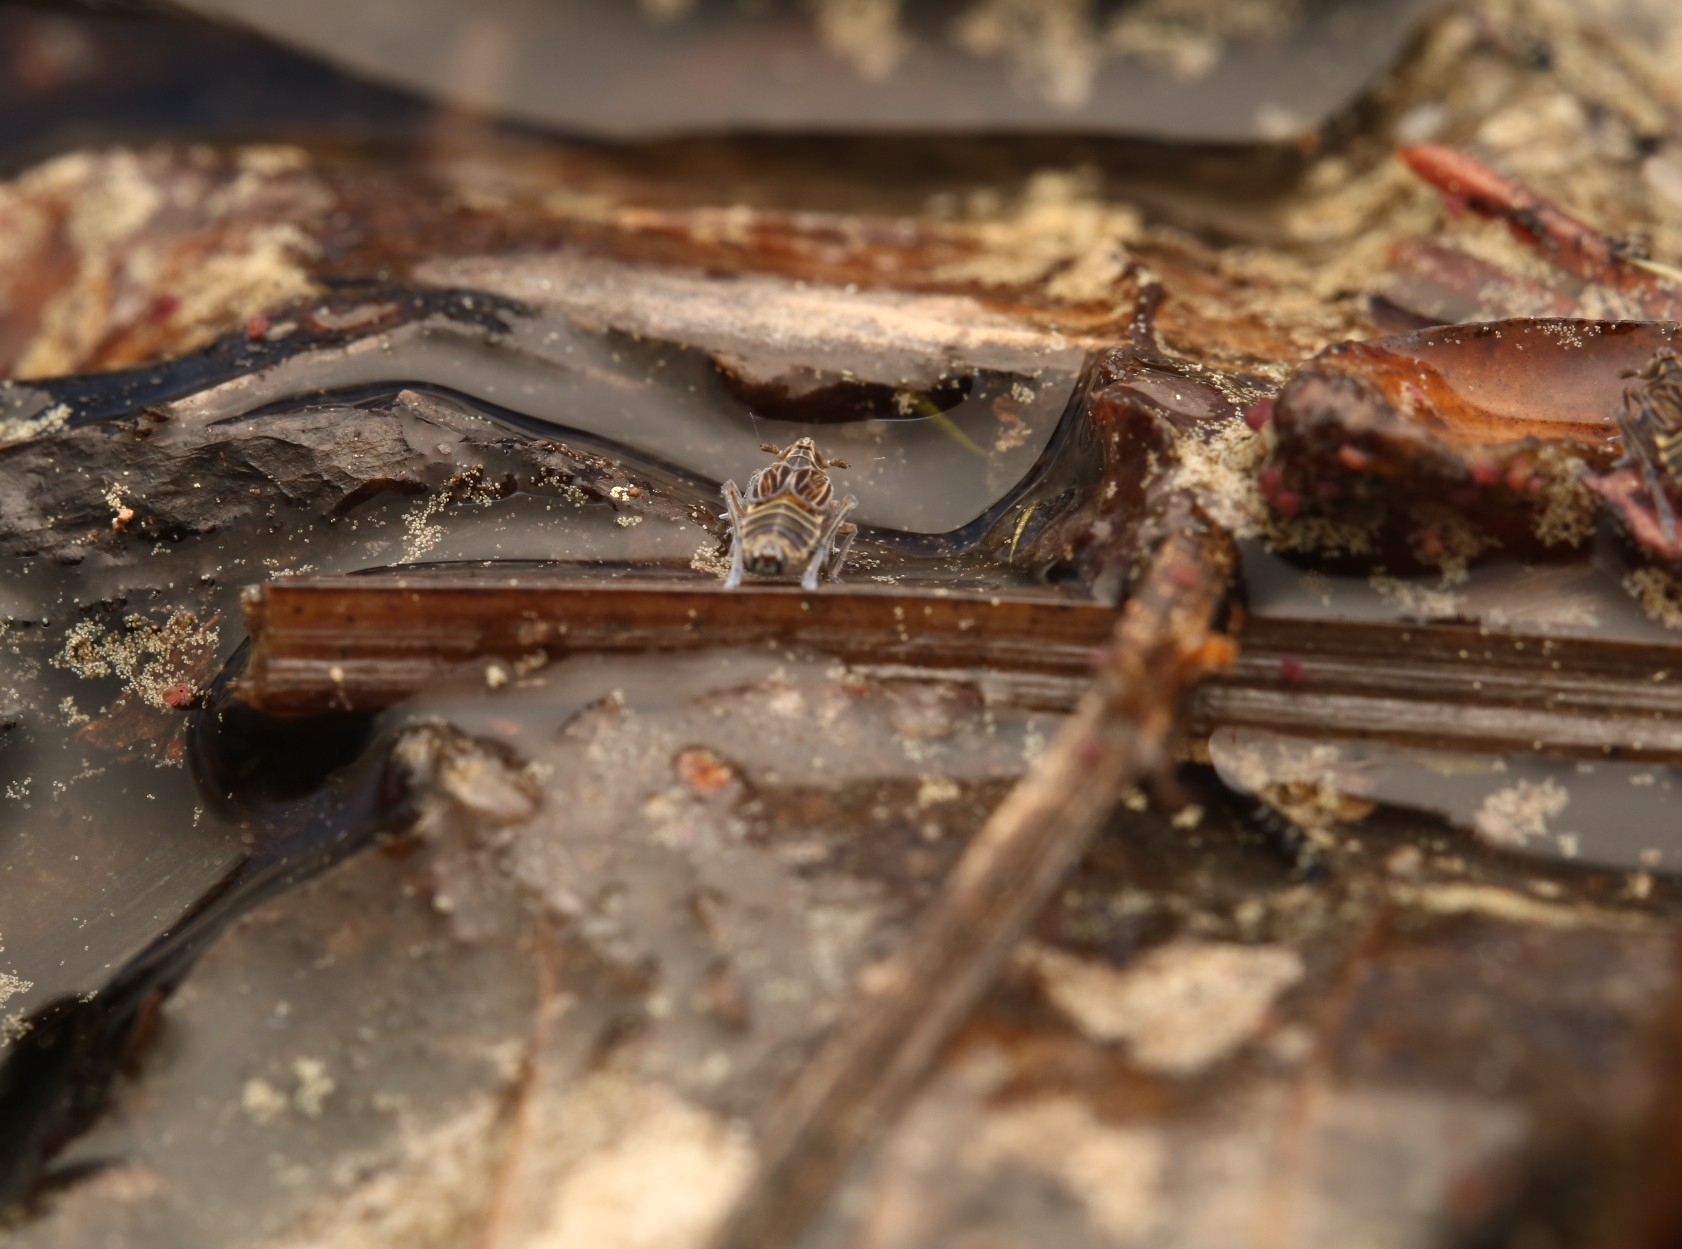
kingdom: Animalia
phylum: Arthropoda
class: Insecta
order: Hemiptera
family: Delphacidae
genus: Megamelus
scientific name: Megamelus davisi
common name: Planthopper
